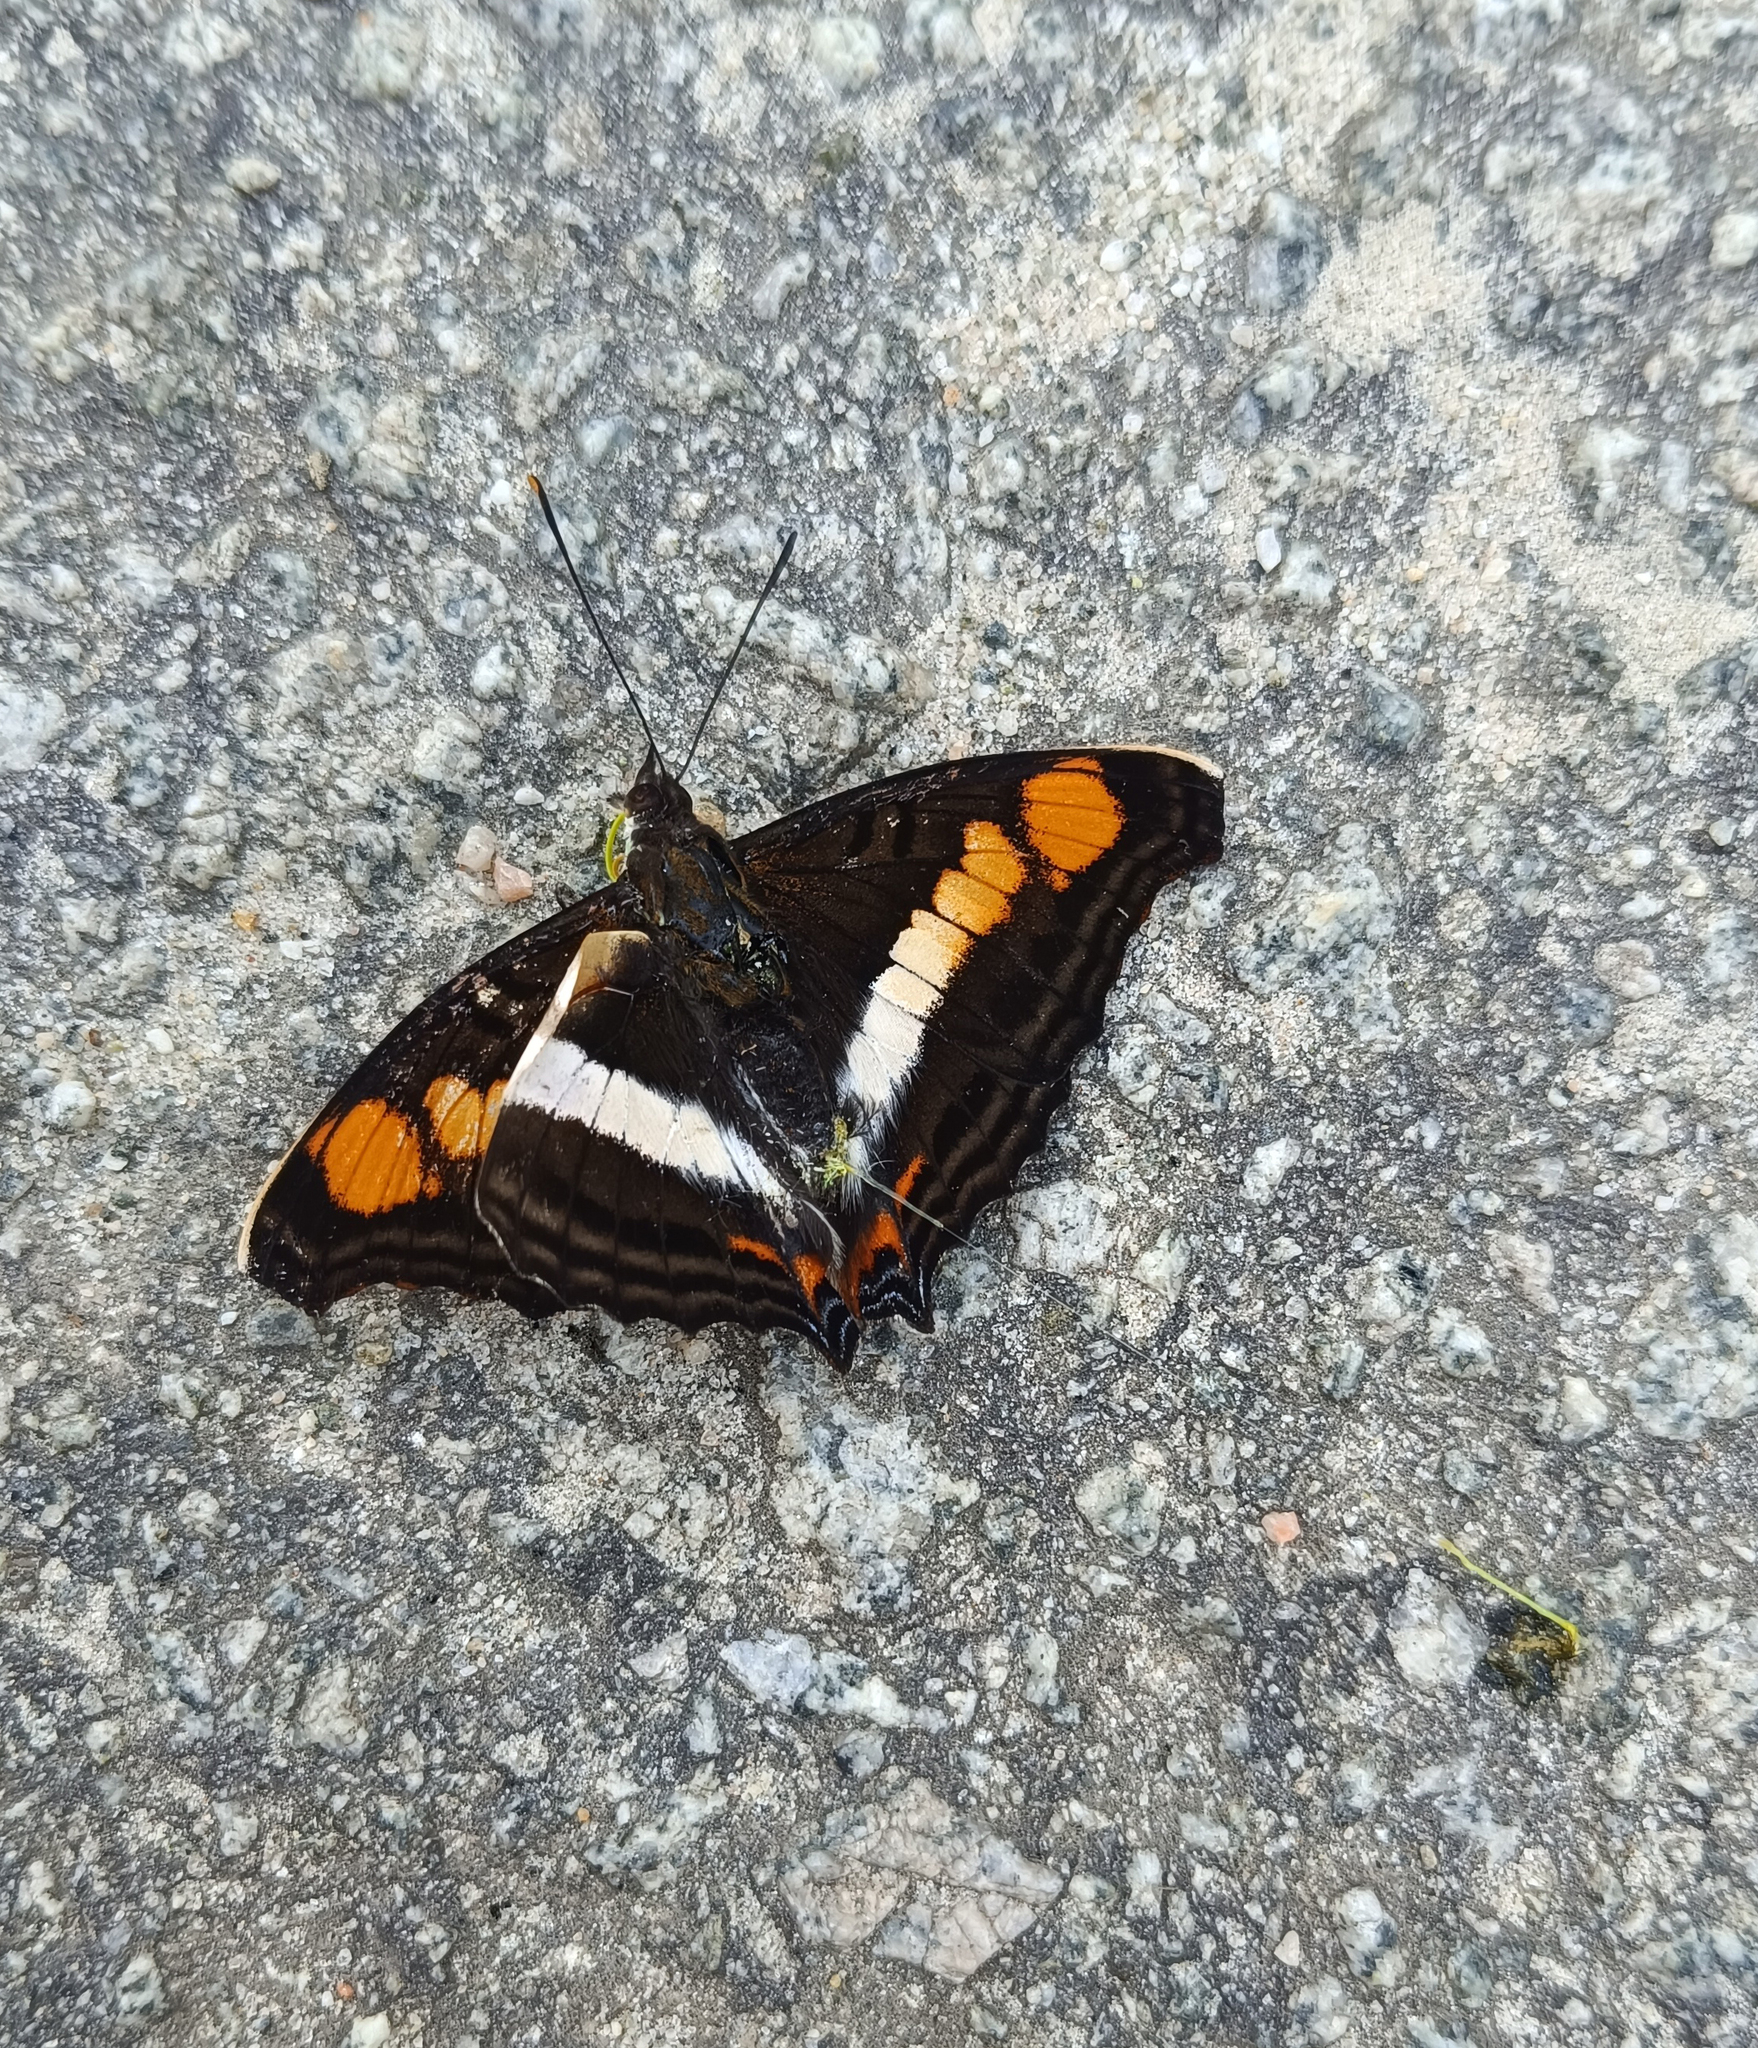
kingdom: Animalia
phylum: Arthropoda
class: Insecta
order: Lepidoptera
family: Nymphalidae
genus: Doxocopa
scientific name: Doxocopa linda
